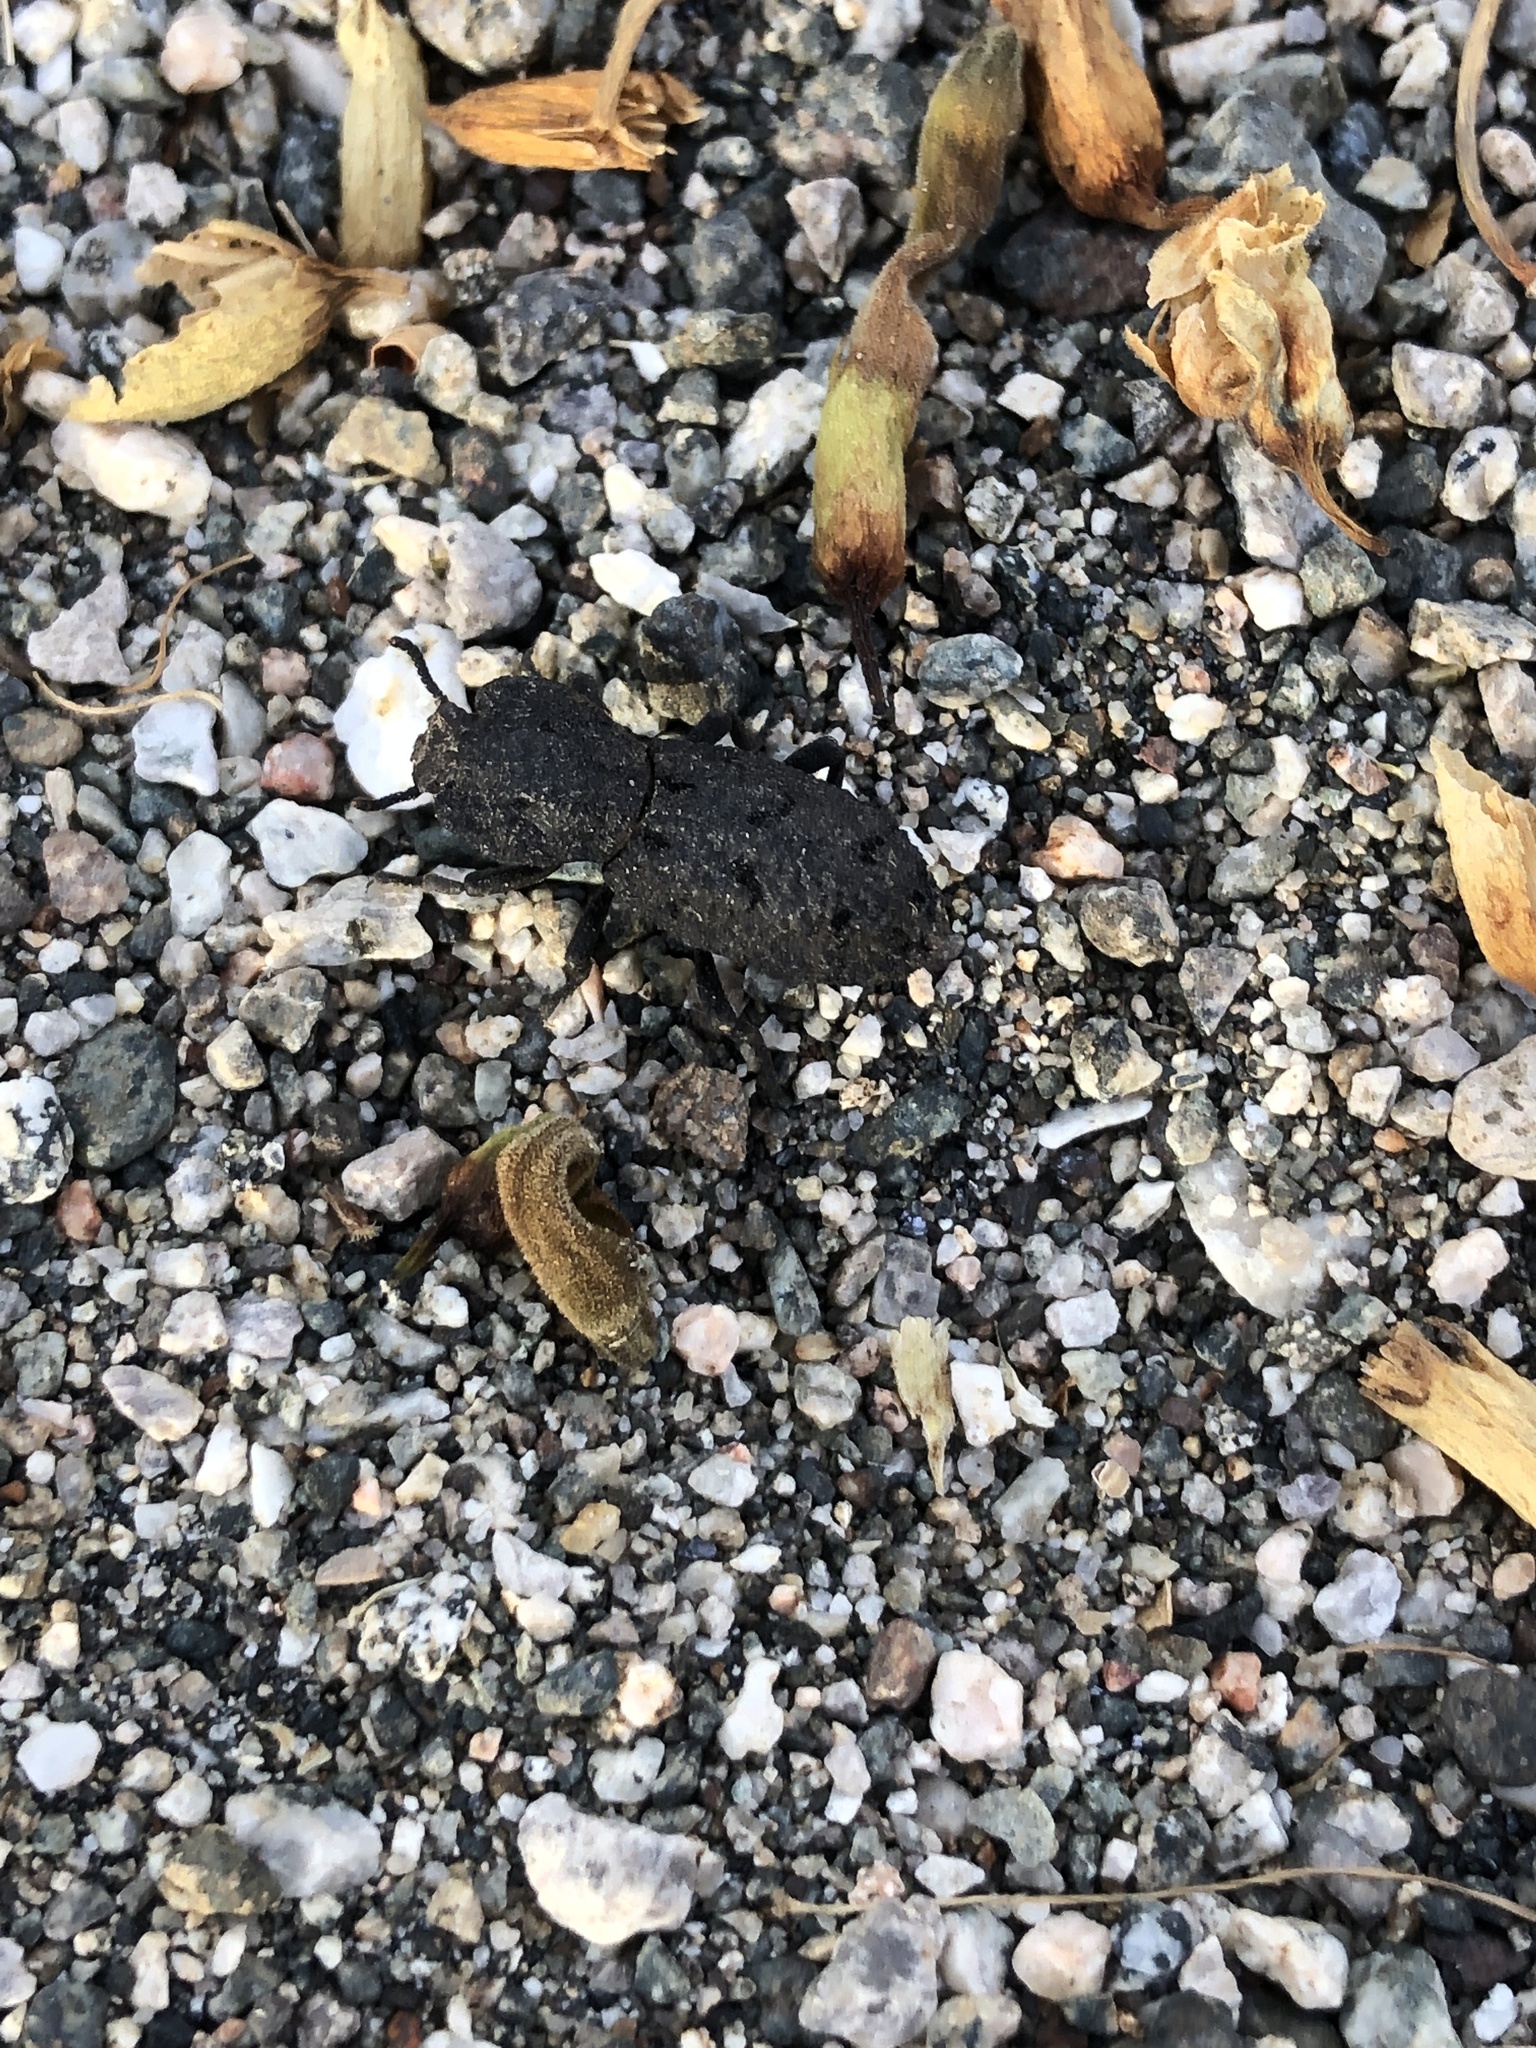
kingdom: Animalia
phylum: Arthropoda
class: Insecta
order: Coleoptera
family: Zopheridae
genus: Phloeodes
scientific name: Phloeodes diabolicus
